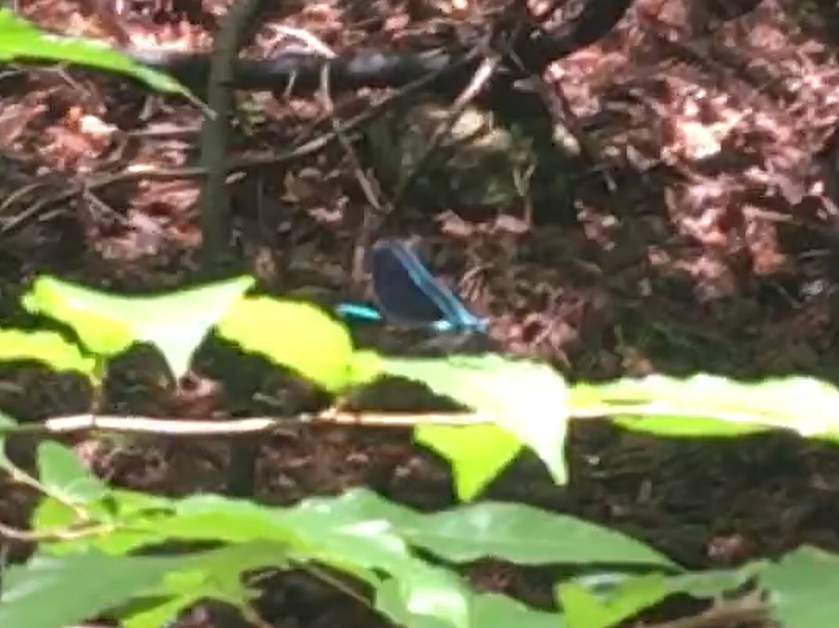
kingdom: Animalia
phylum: Arthropoda
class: Insecta
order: Odonata
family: Calopterygidae
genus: Calopteryx
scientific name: Calopteryx maculata
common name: Ebony jewelwing
